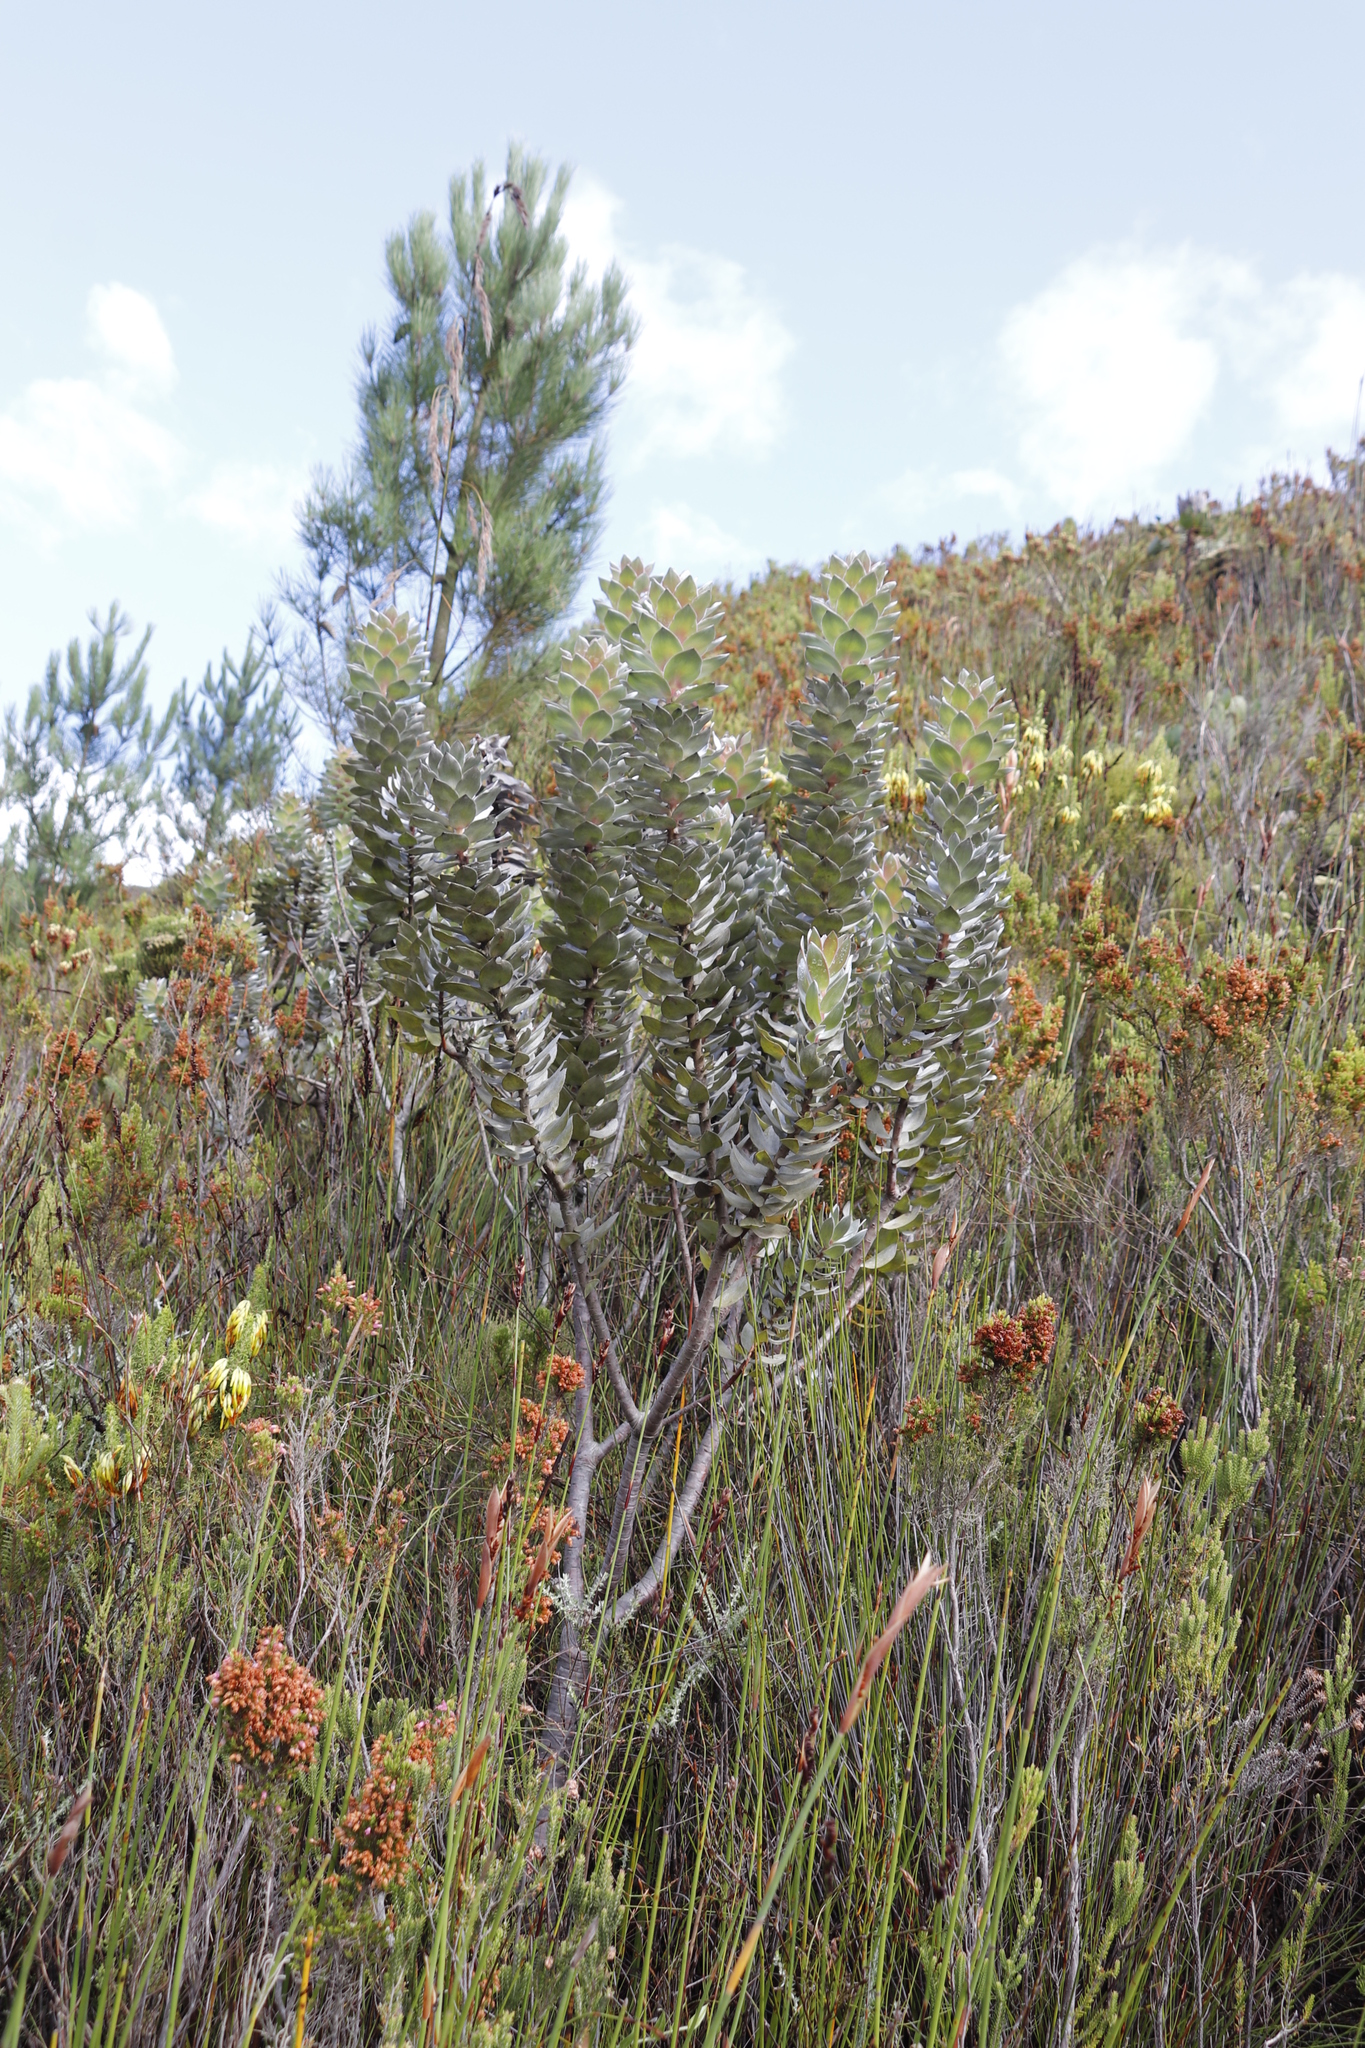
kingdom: Plantae
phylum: Tracheophyta
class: Magnoliopsida
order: Proteales
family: Proteaceae
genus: Mimetes
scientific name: Mimetes argenteus
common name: Silver pagoda
